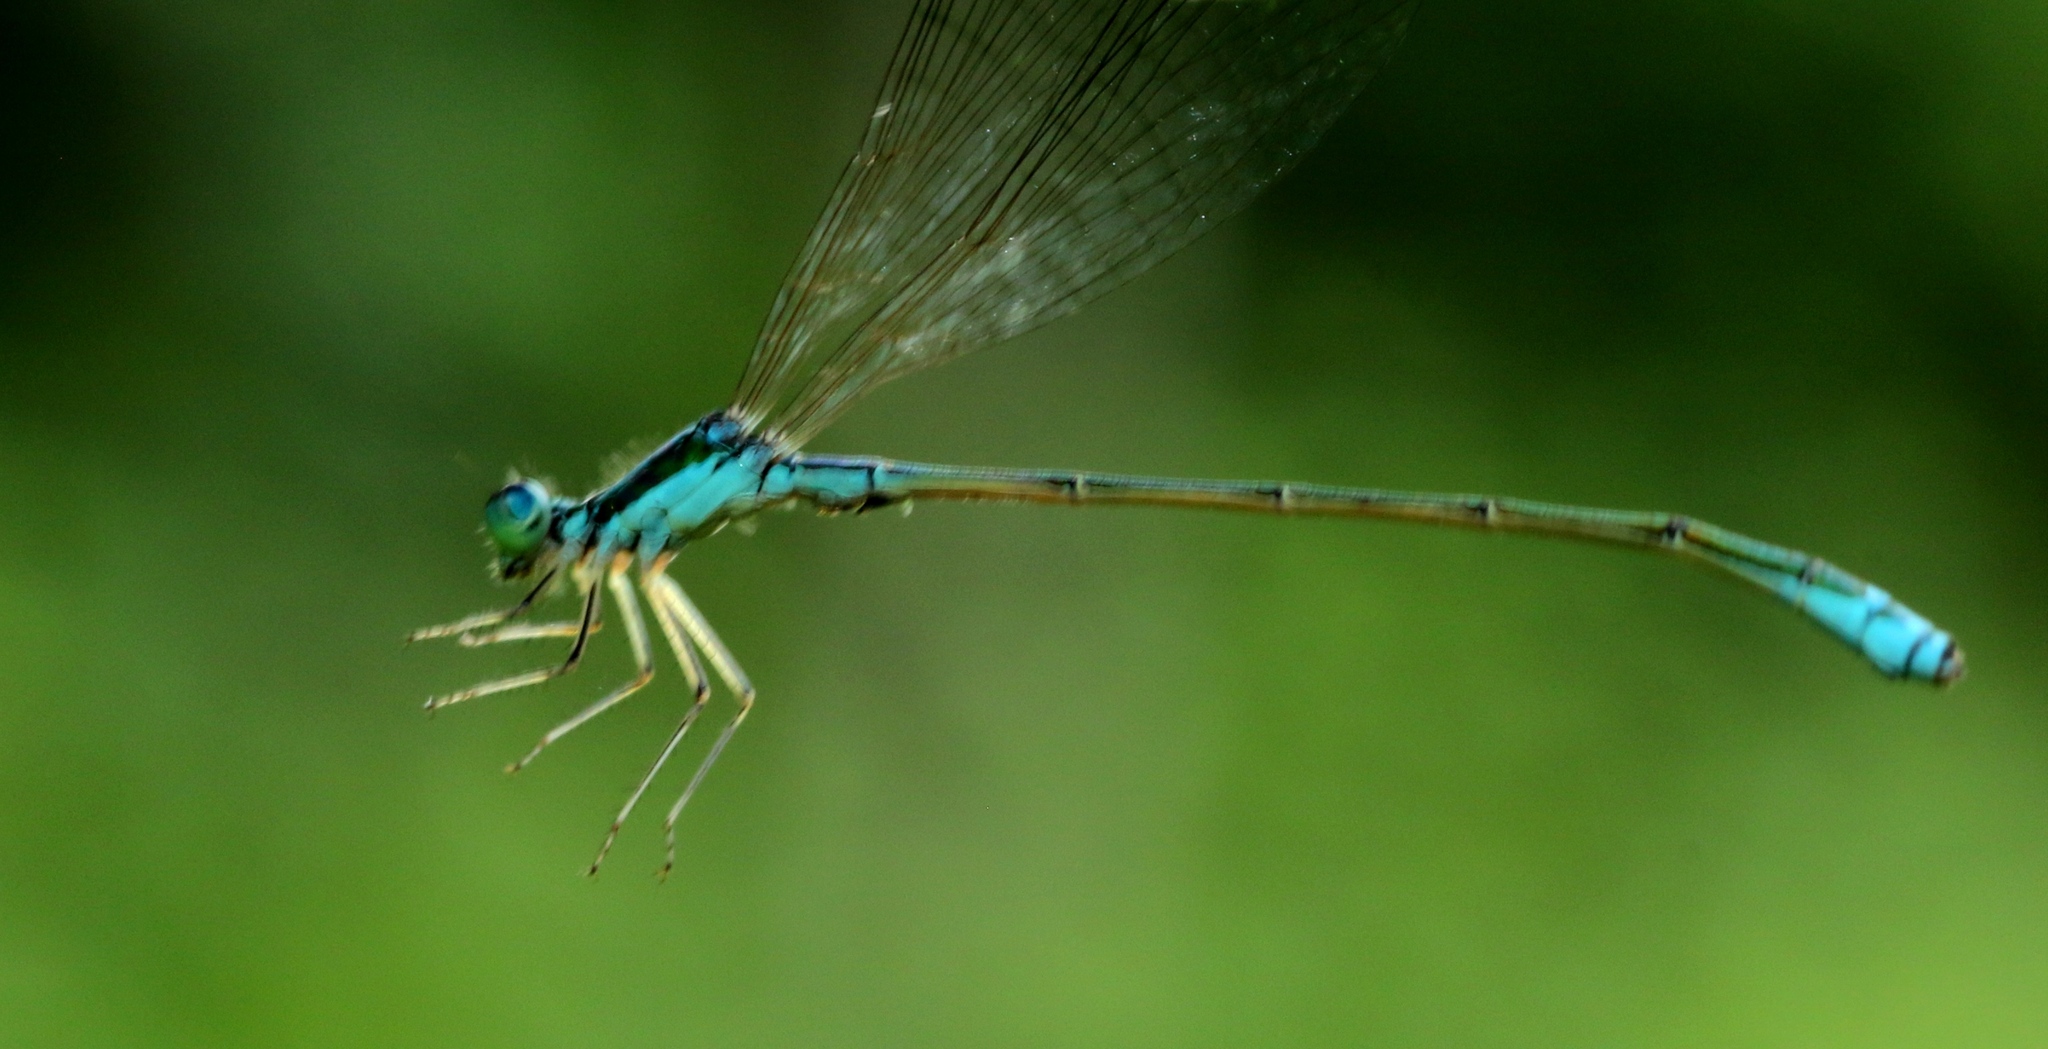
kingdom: Animalia
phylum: Arthropoda
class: Insecta
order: Odonata
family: Coenagrionidae
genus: Nehalennia
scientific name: Nehalennia irene
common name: Sedge sprite
